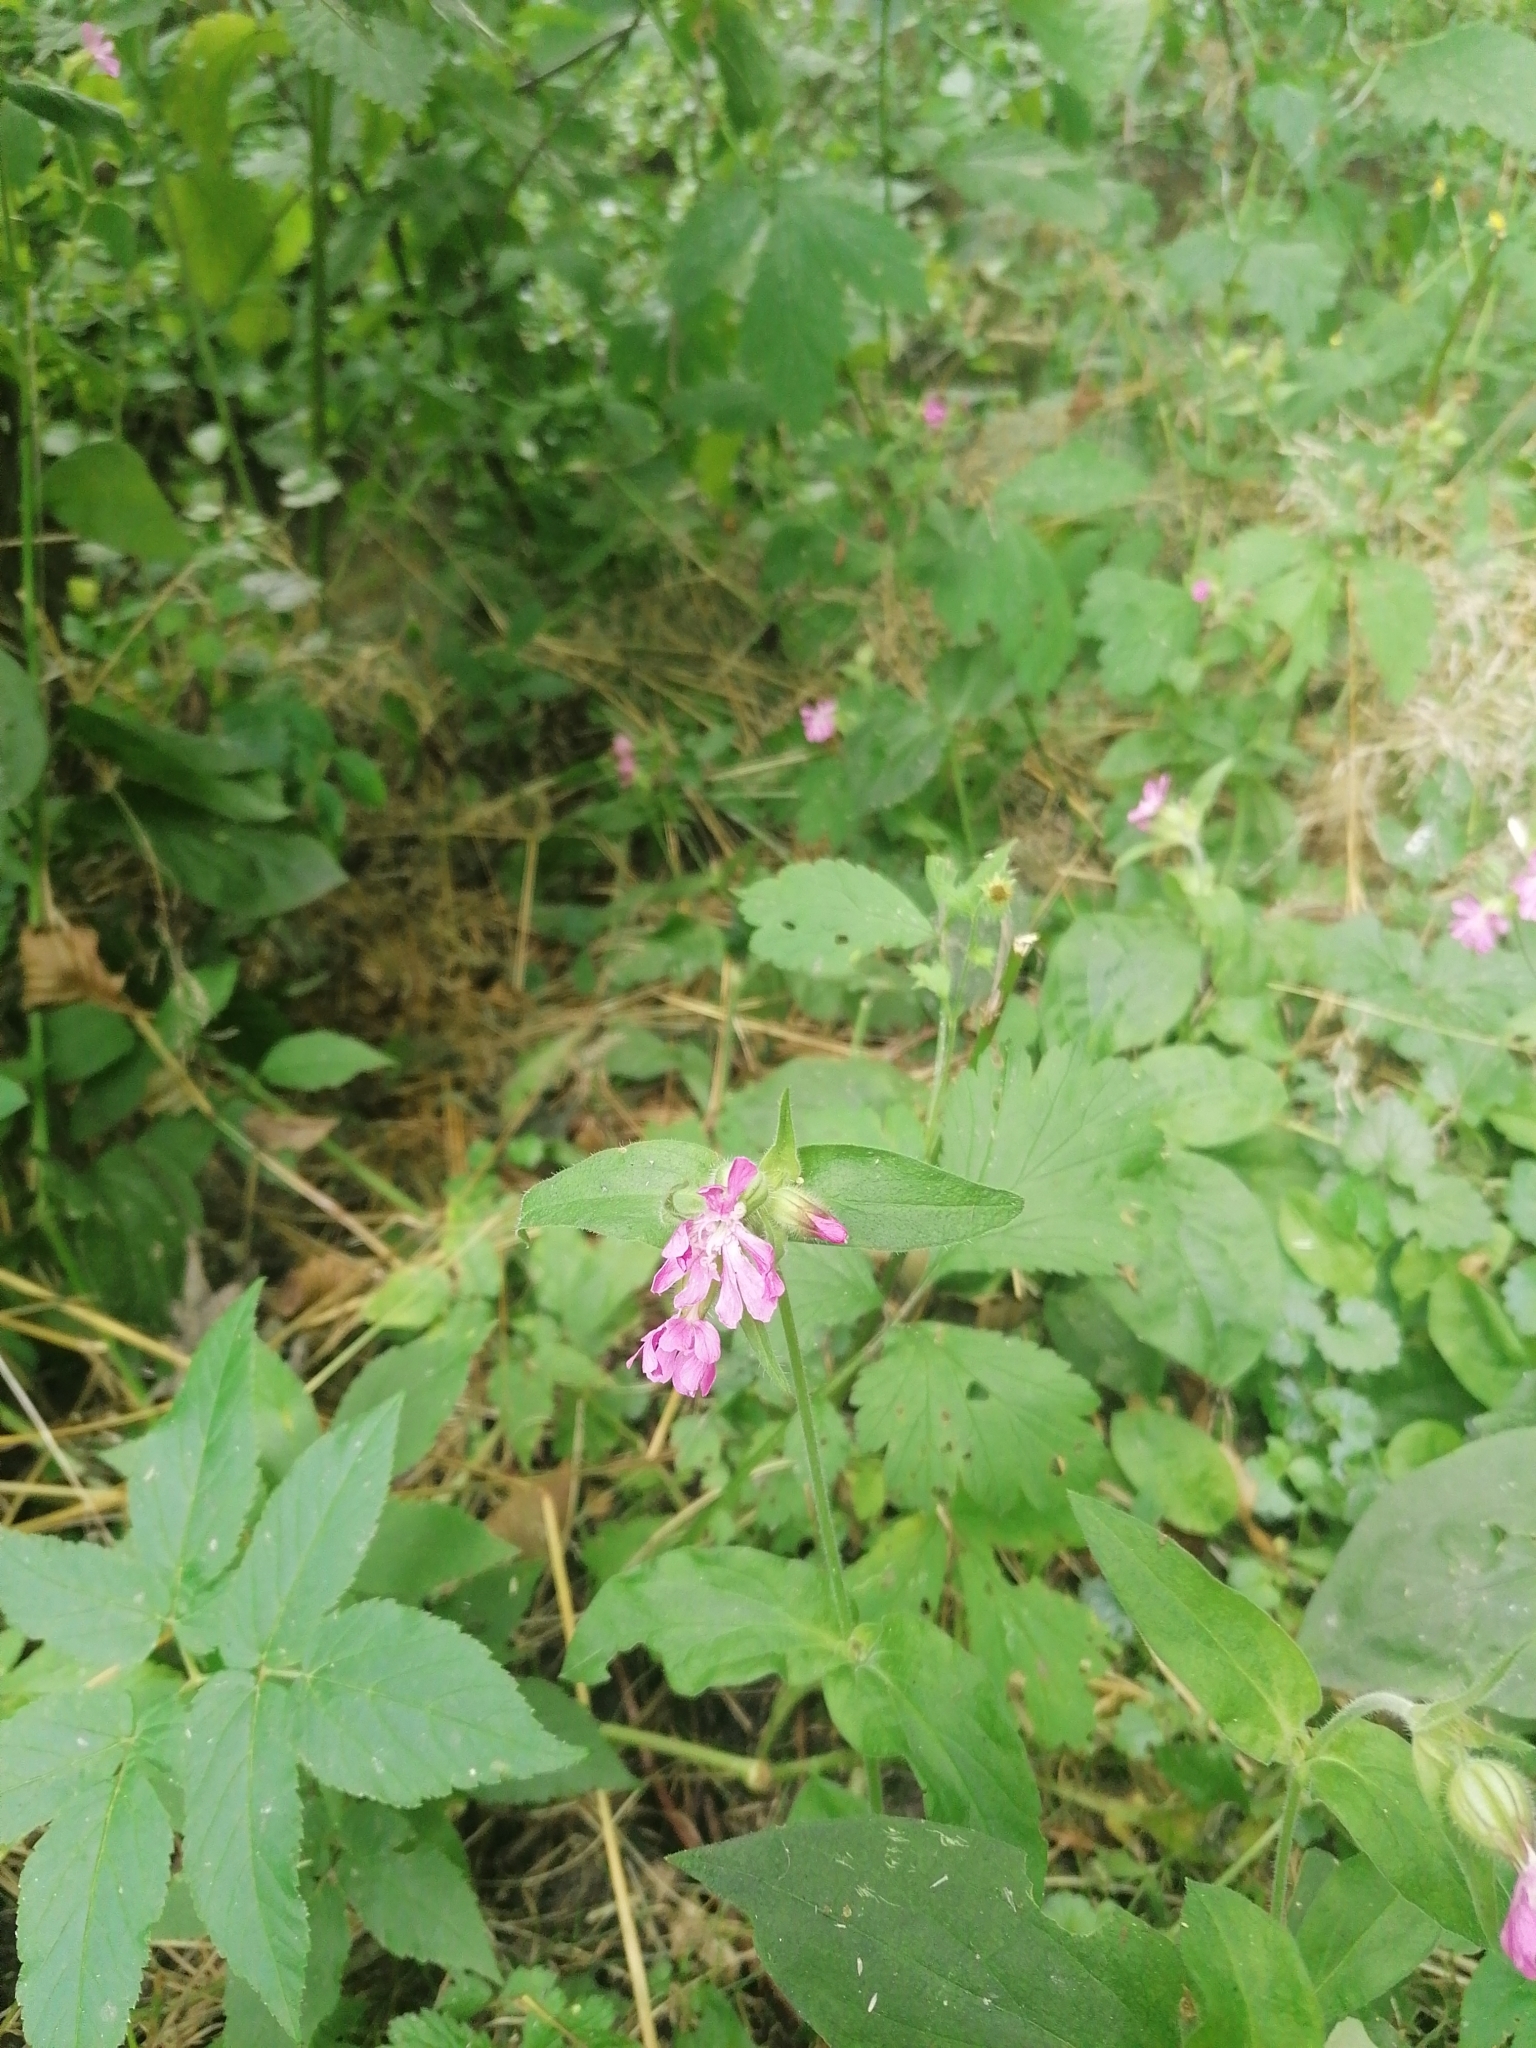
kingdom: Plantae
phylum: Tracheophyta
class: Magnoliopsida
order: Caryophyllales
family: Caryophyllaceae
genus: Silene
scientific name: Silene dioica
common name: Red campion
